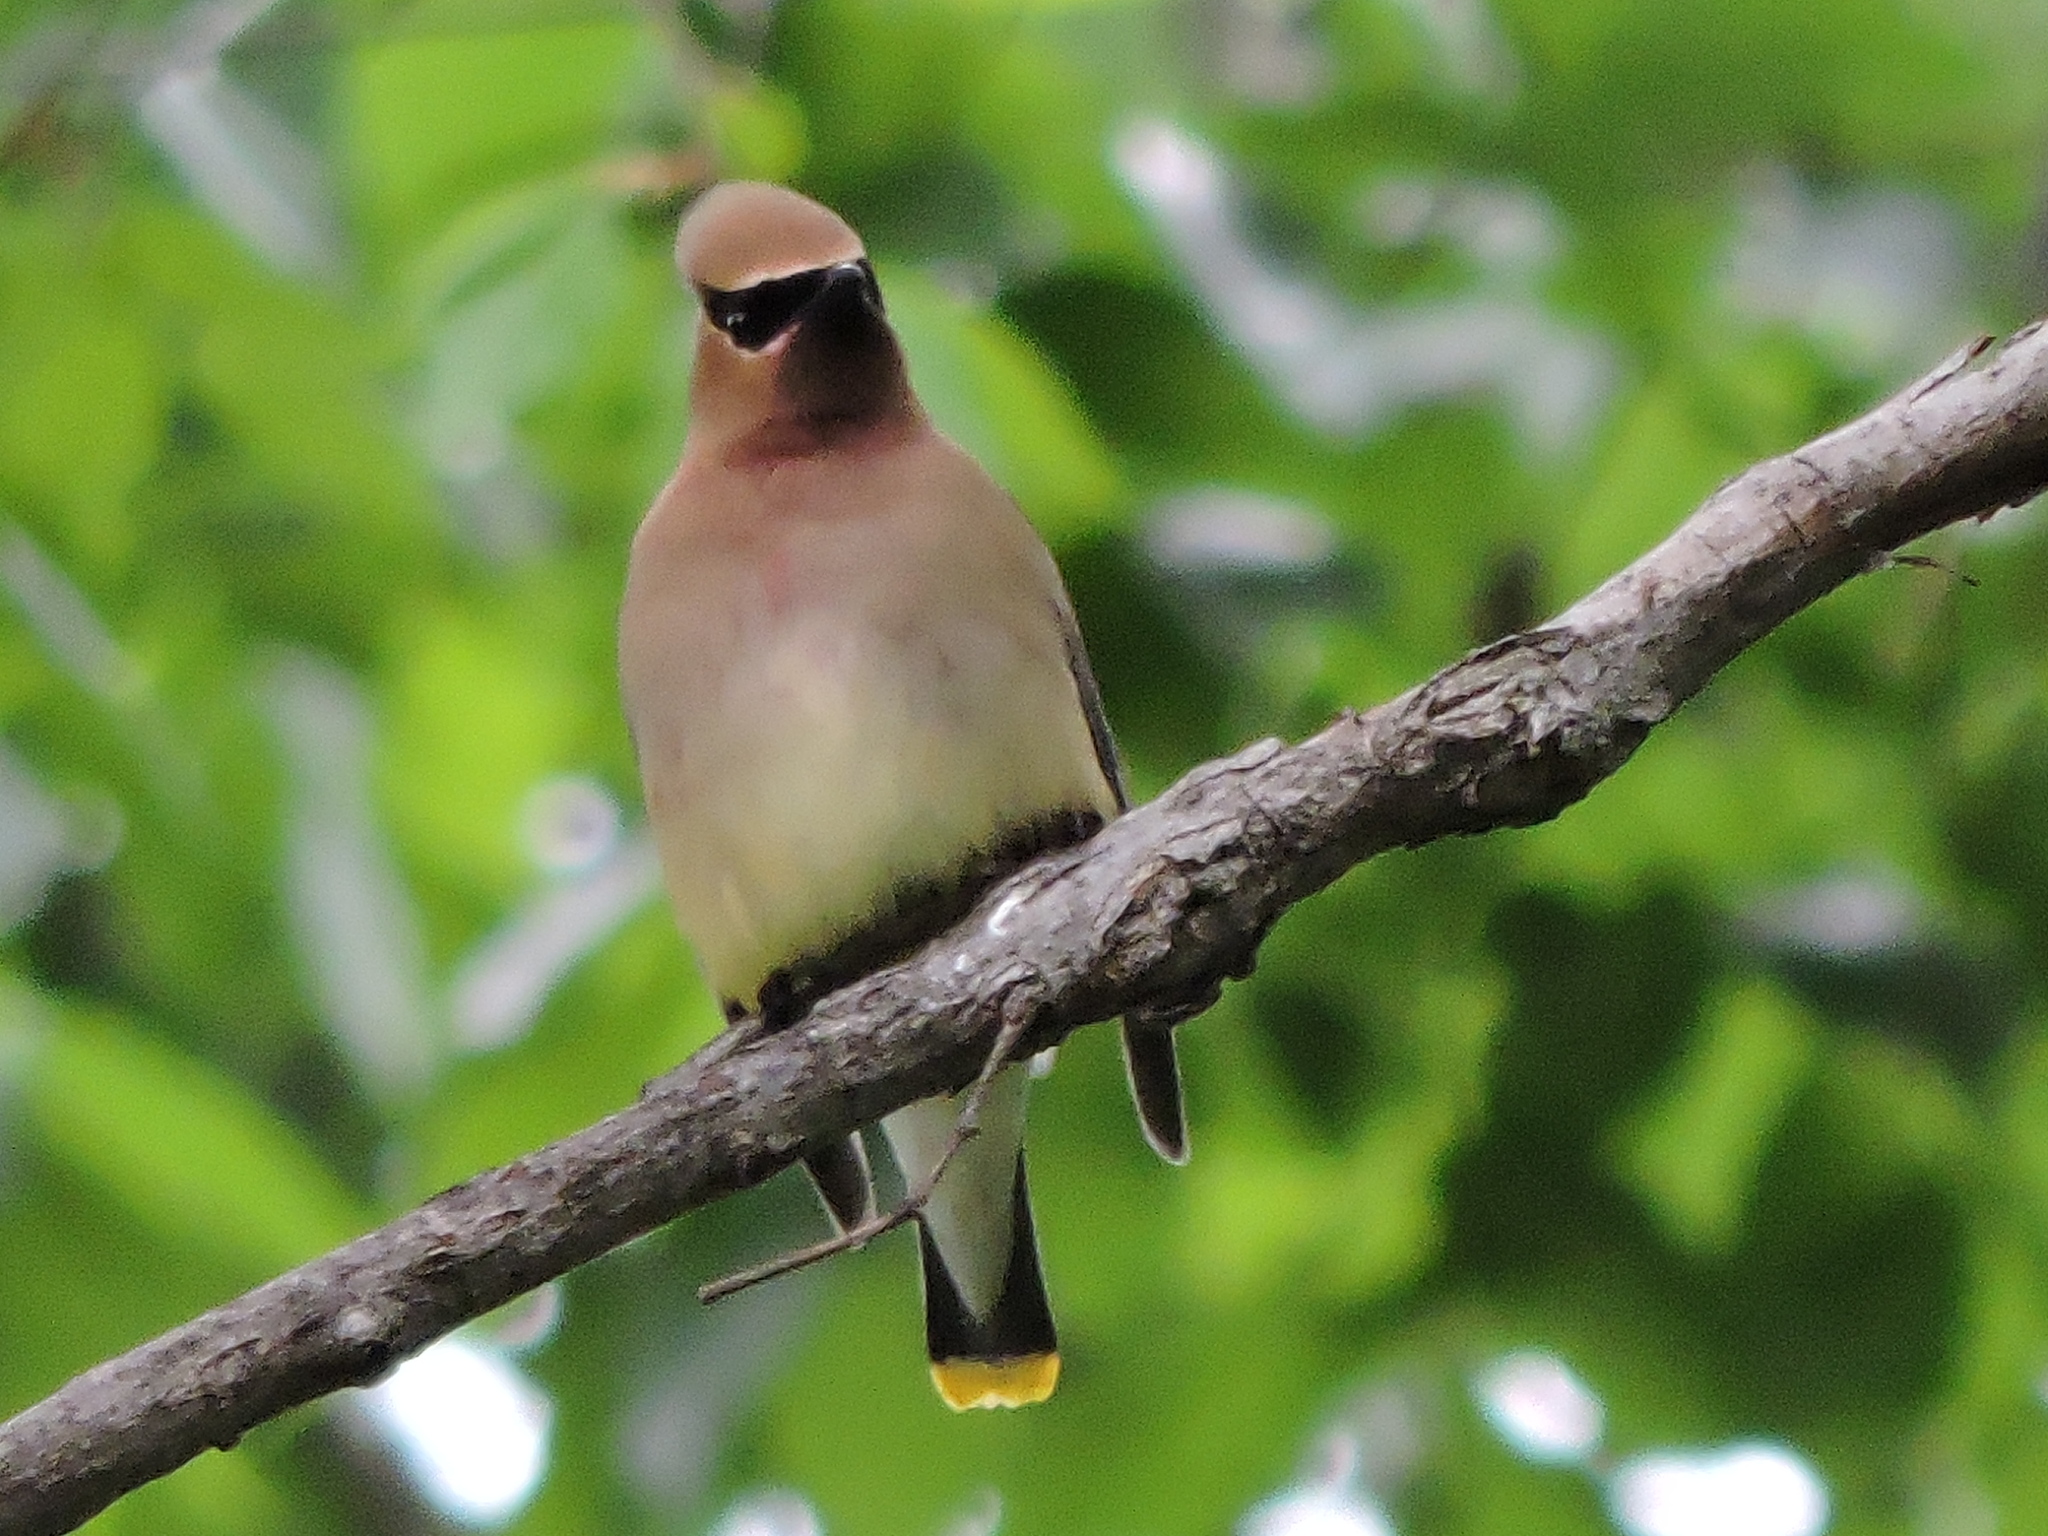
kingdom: Animalia
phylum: Chordata
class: Aves
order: Passeriformes
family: Bombycillidae
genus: Bombycilla
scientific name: Bombycilla cedrorum
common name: Cedar waxwing
